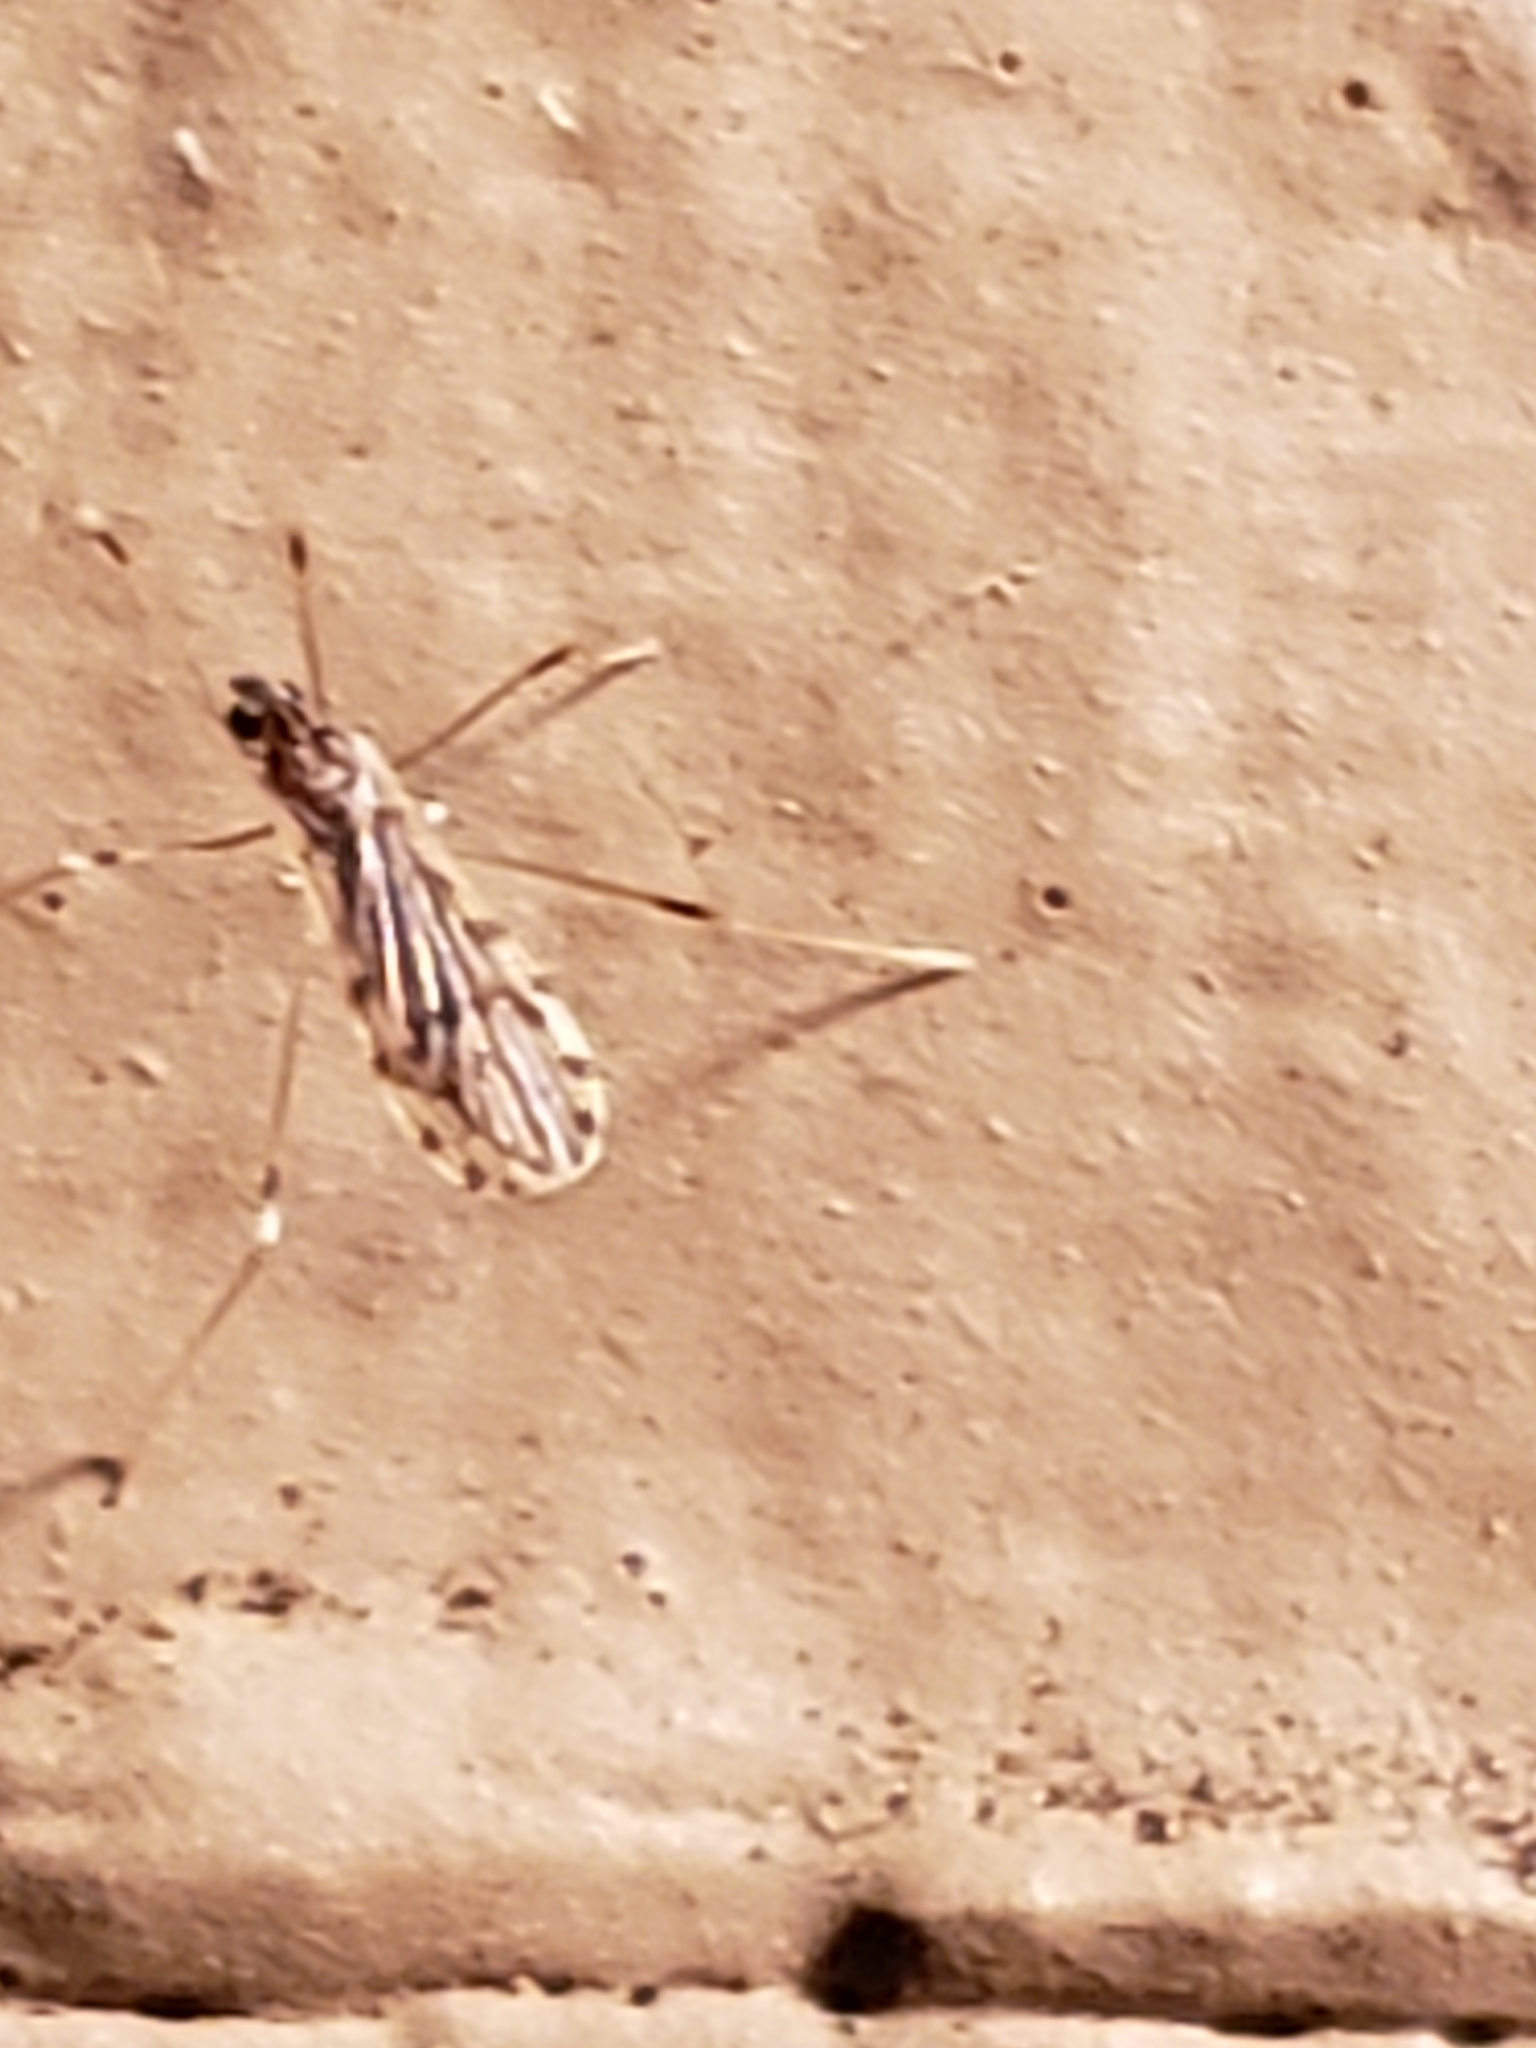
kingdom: Animalia
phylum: Arthropoda
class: Insecta
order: Diptera
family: Limoniidae
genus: Erioptera
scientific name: Erioptera parva
